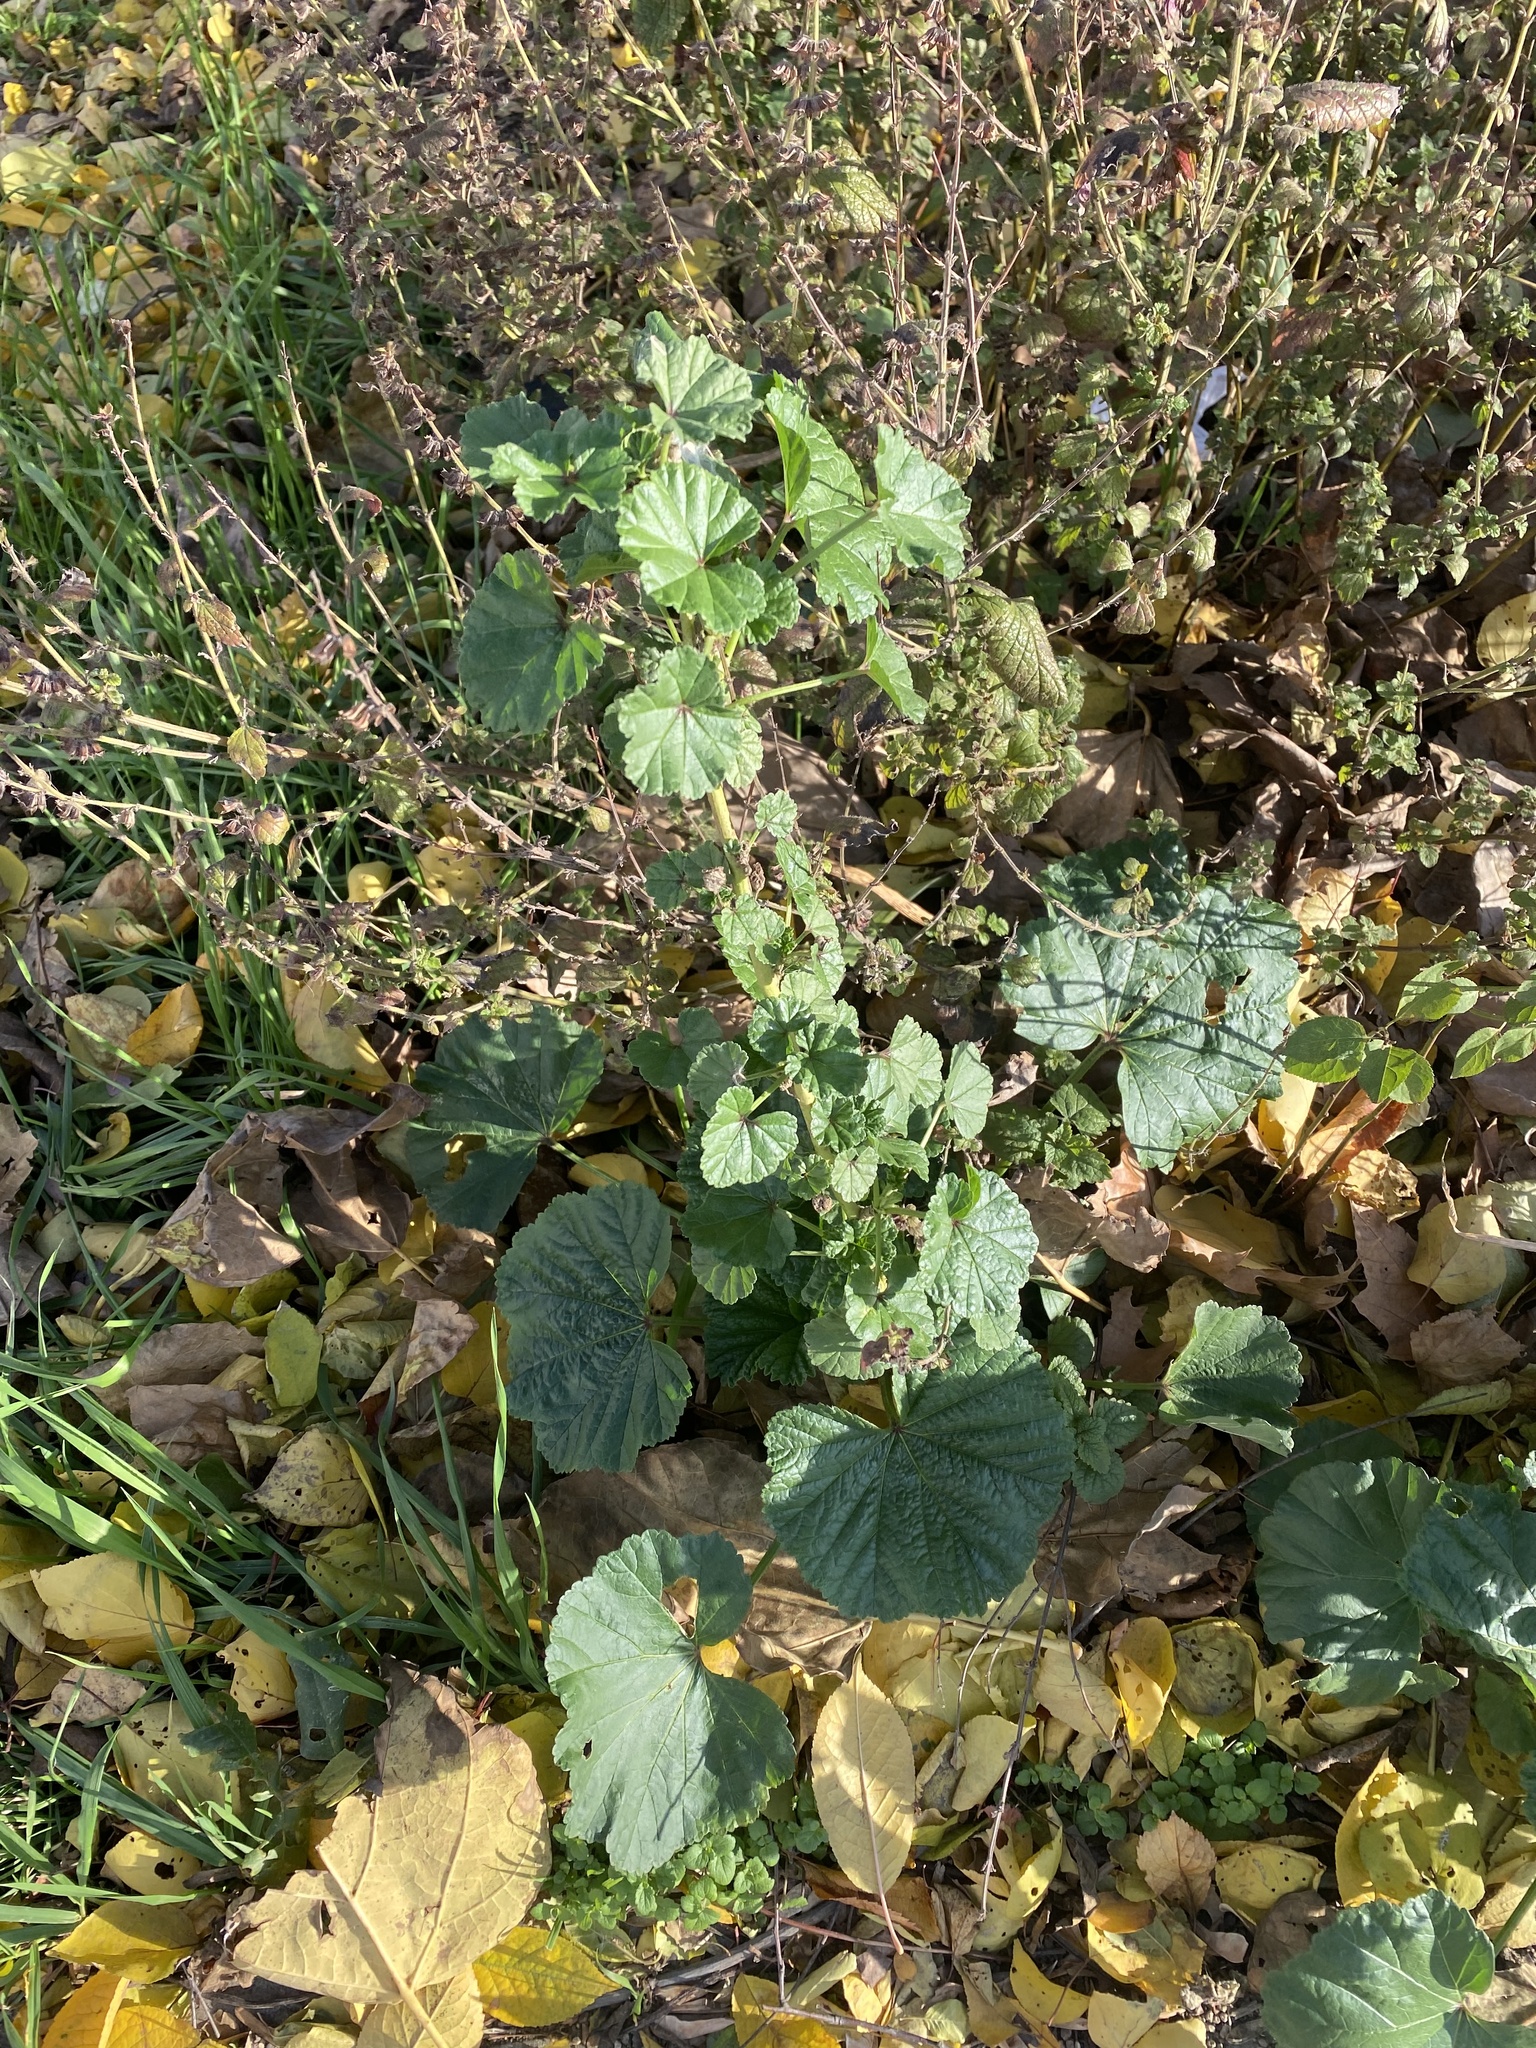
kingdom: Plantae
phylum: Tracheophyta
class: Magnoliopsida
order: Malvales
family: Malvaceae
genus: Malva
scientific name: Malva neglecta
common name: Common mallow
